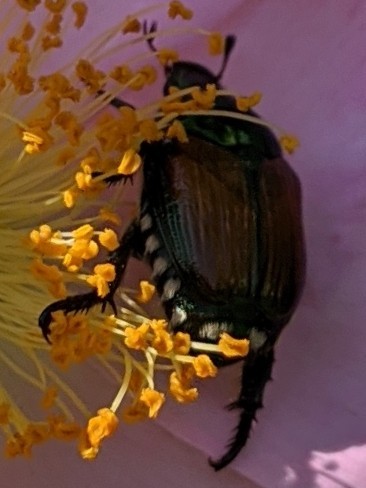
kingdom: Animalia
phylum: Arthropoda
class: Insecta
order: Coleoptera
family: Scarabaeidae
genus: Popillia
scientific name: Popillia japonica
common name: Japanese beetle
